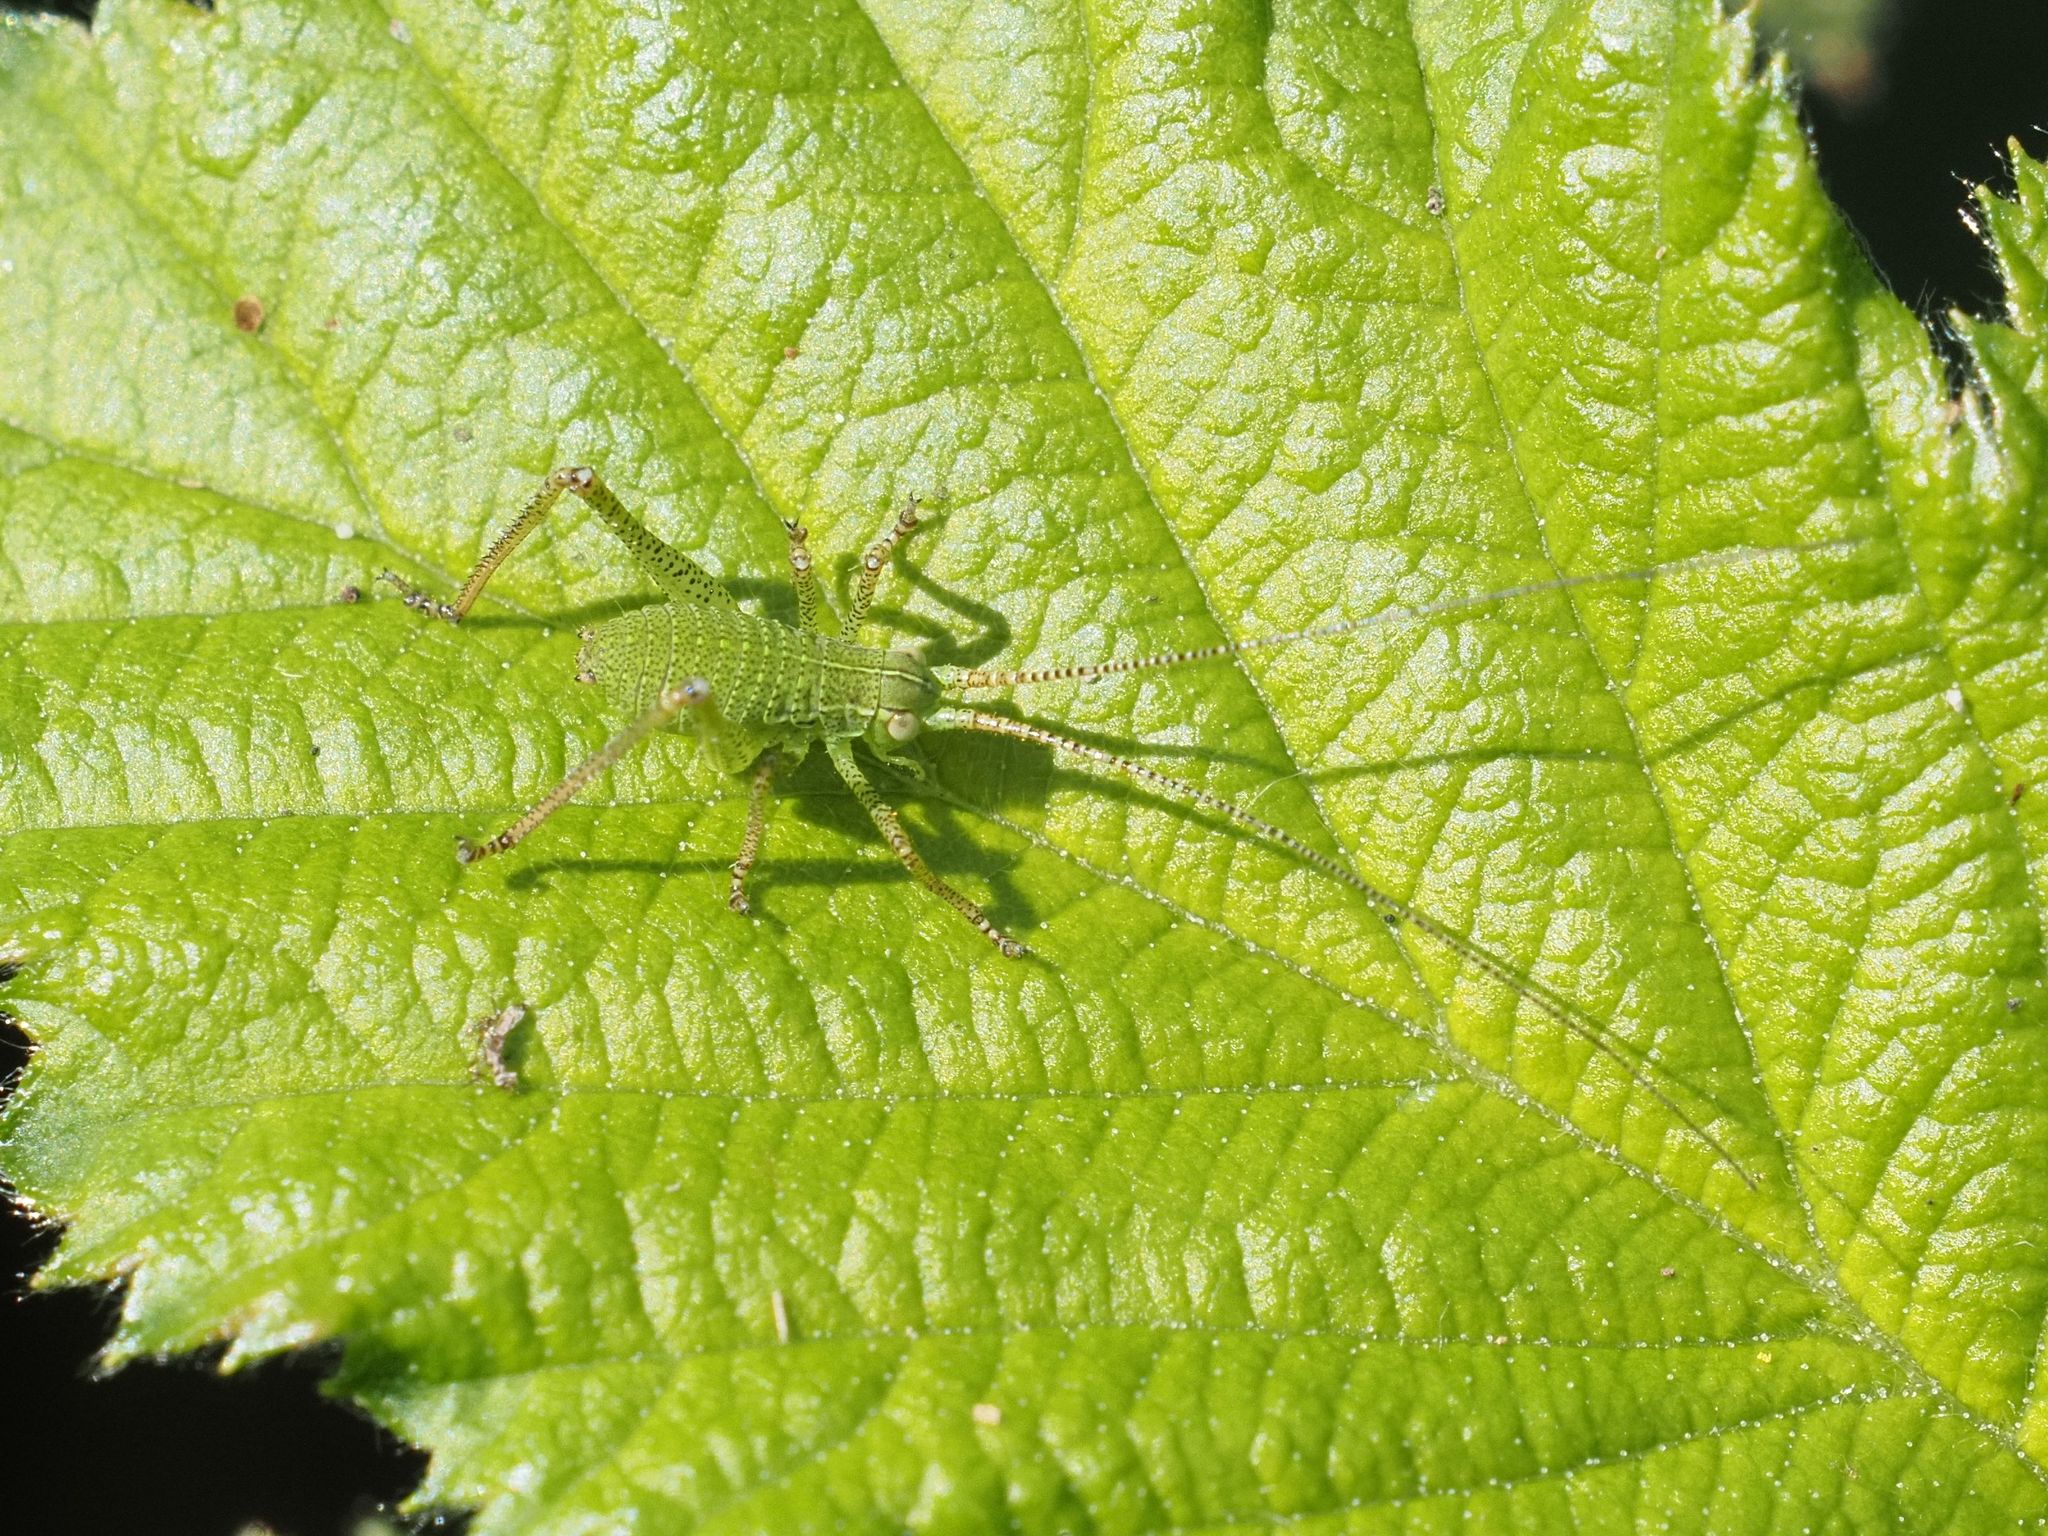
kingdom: Animalia
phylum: Arthropoda
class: Insecta
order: Orthoptera
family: Tettigoniidae
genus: Barbitistes
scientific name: Barbitistes serricauda
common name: Saw-tailed bush-cricket
